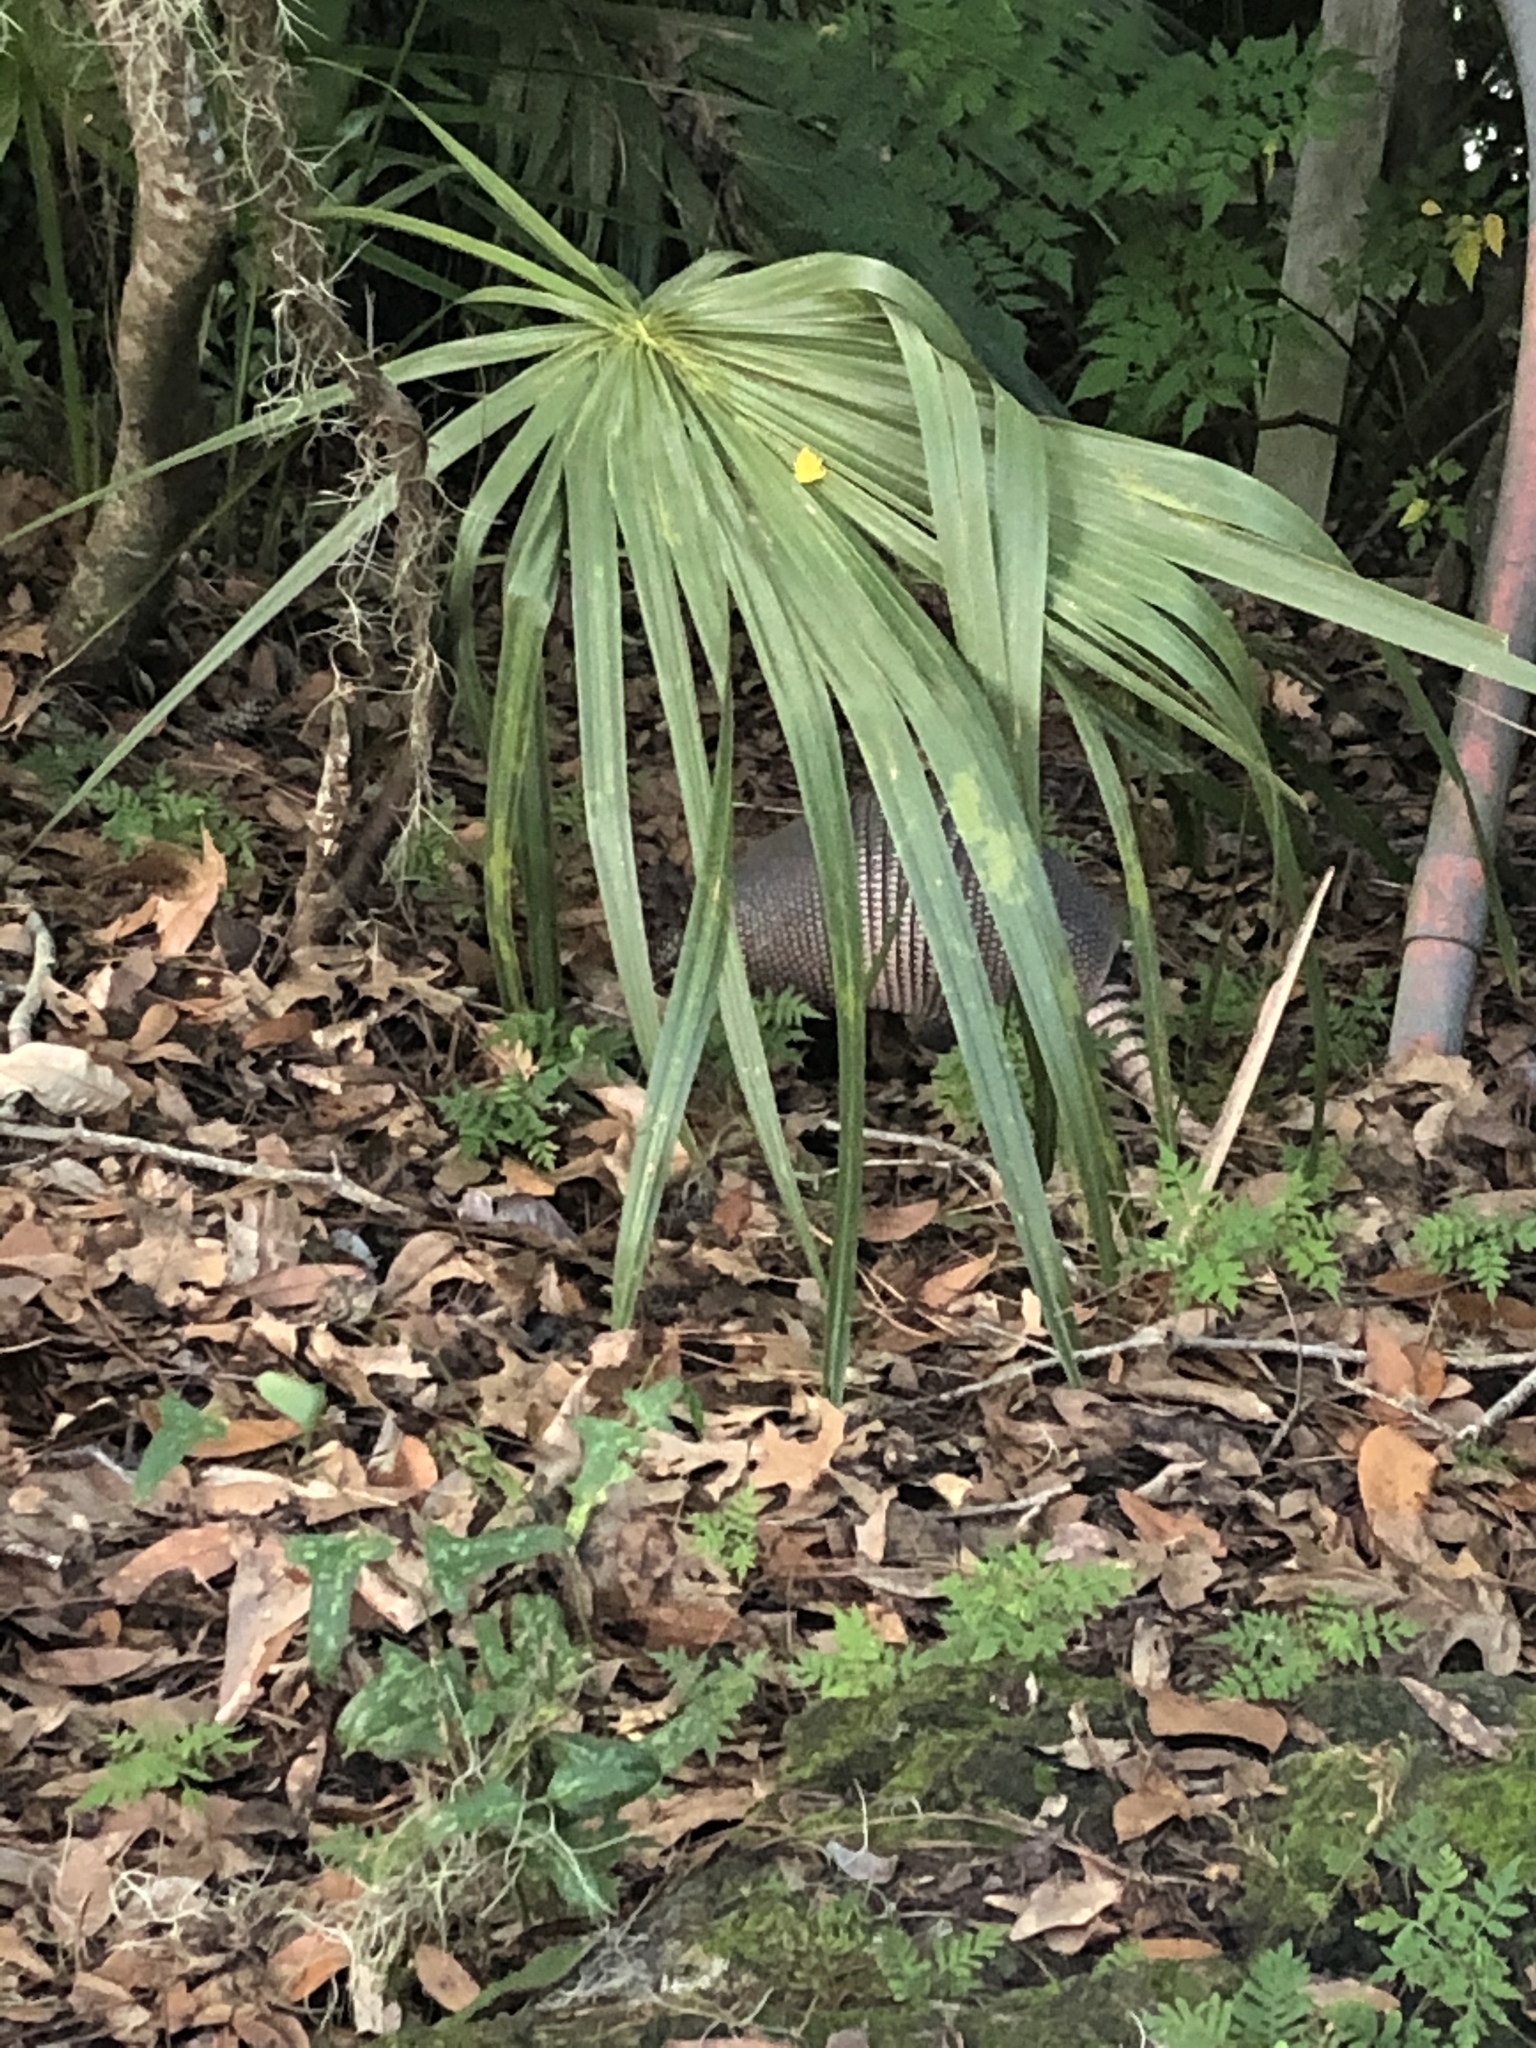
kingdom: Animalia
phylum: Chordata
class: Mammalia
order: Cingulata
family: Dasypodidae
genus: Dasypus
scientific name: Dasypus novemcinctus
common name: Nine-banded armadillo
